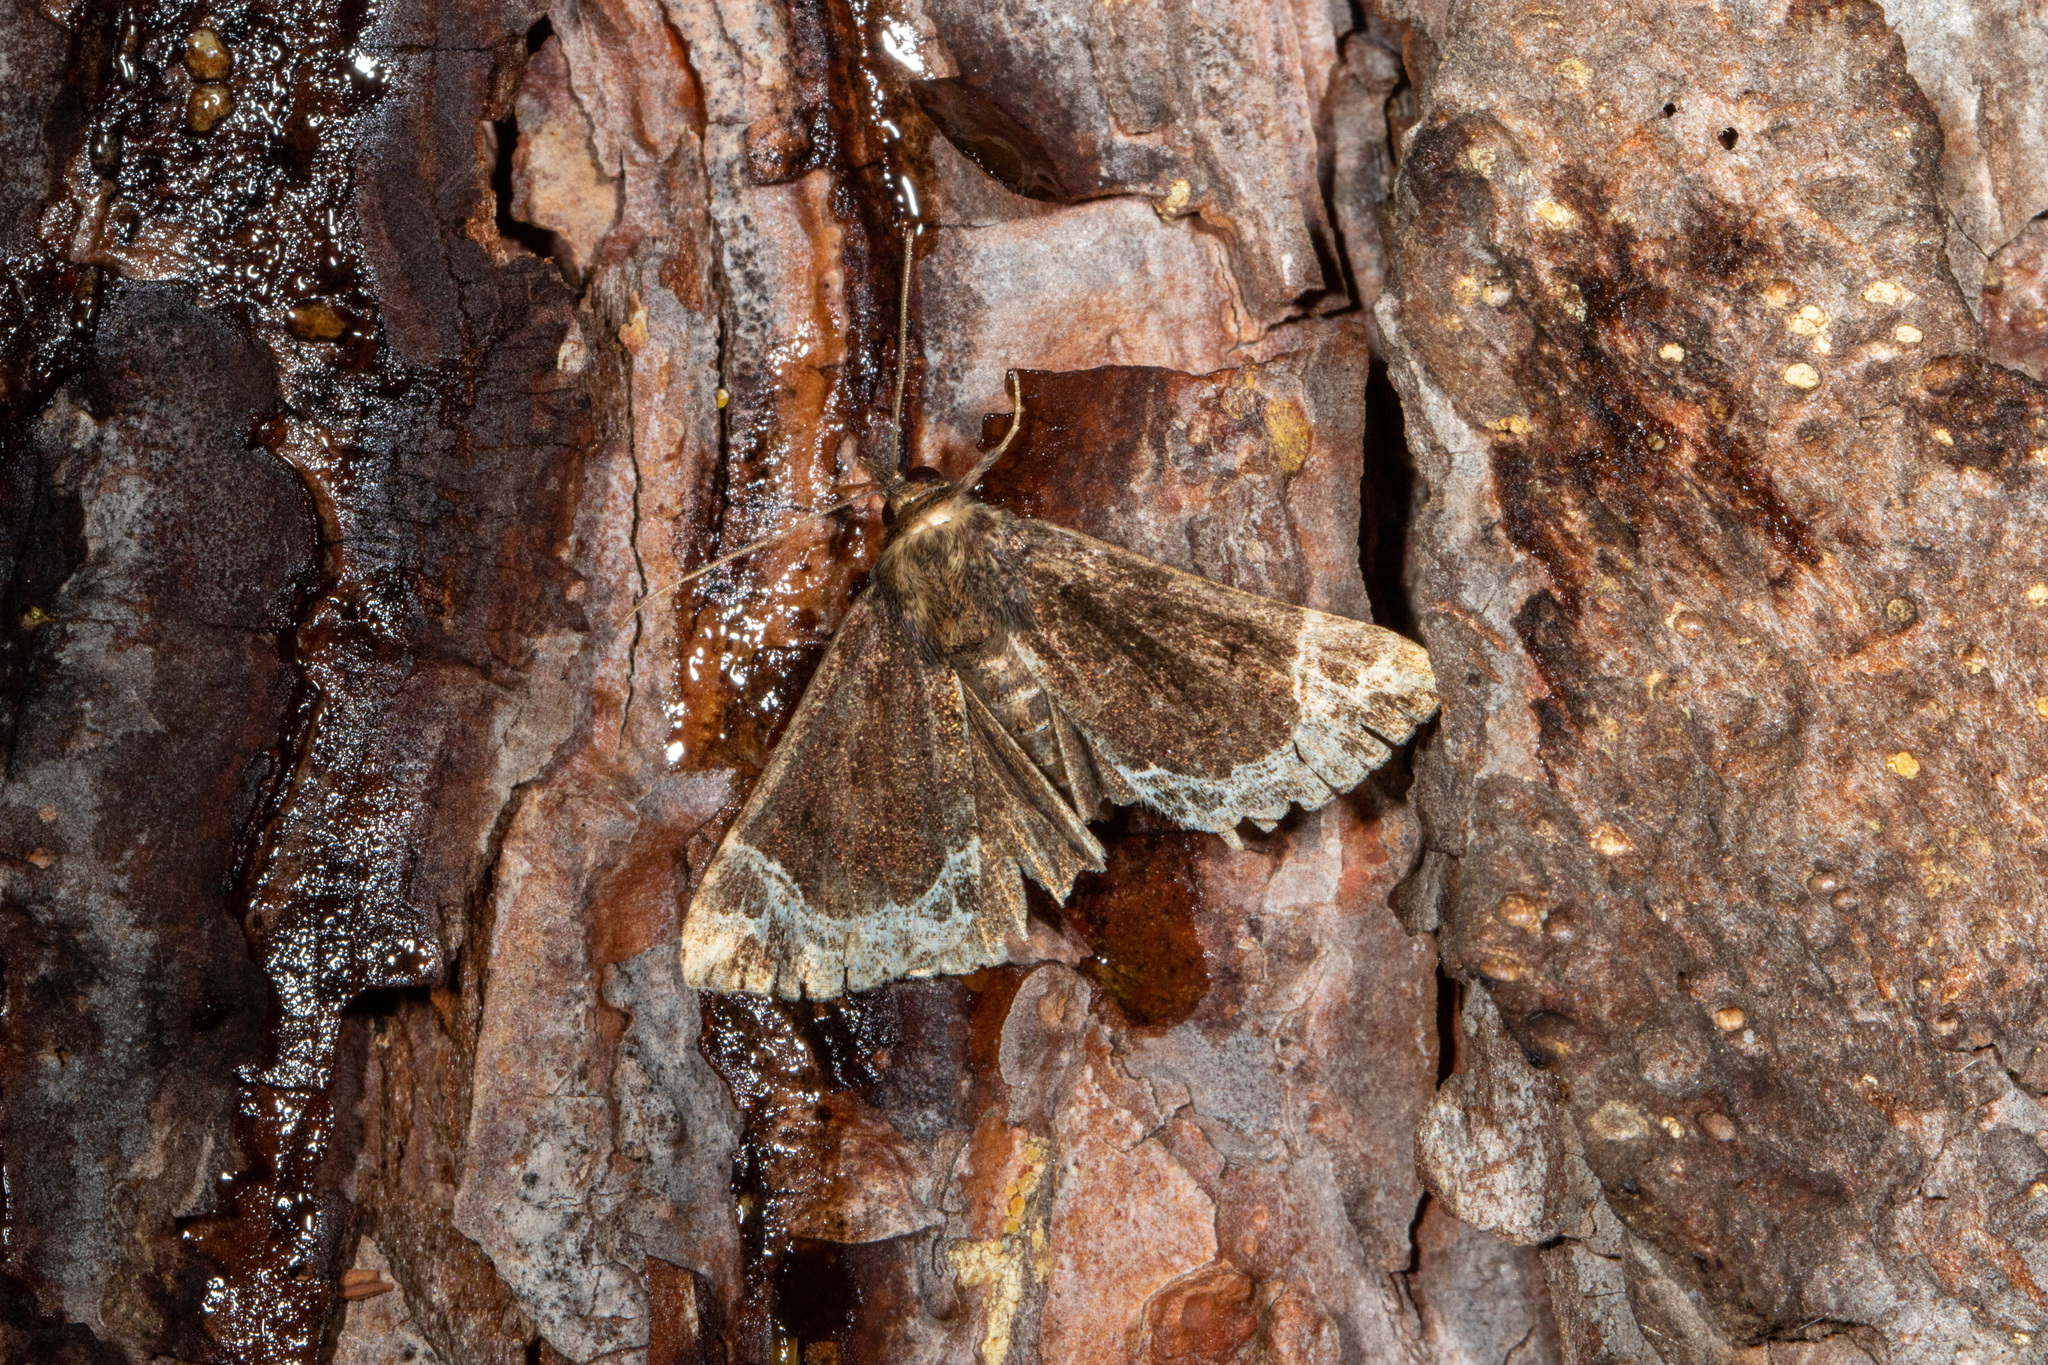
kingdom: Animalia
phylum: Arthropoda
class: Insecta
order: Lepidoptera
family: Erebidae
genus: Hypena
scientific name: Hypena abalienalis
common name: White-lined snout
